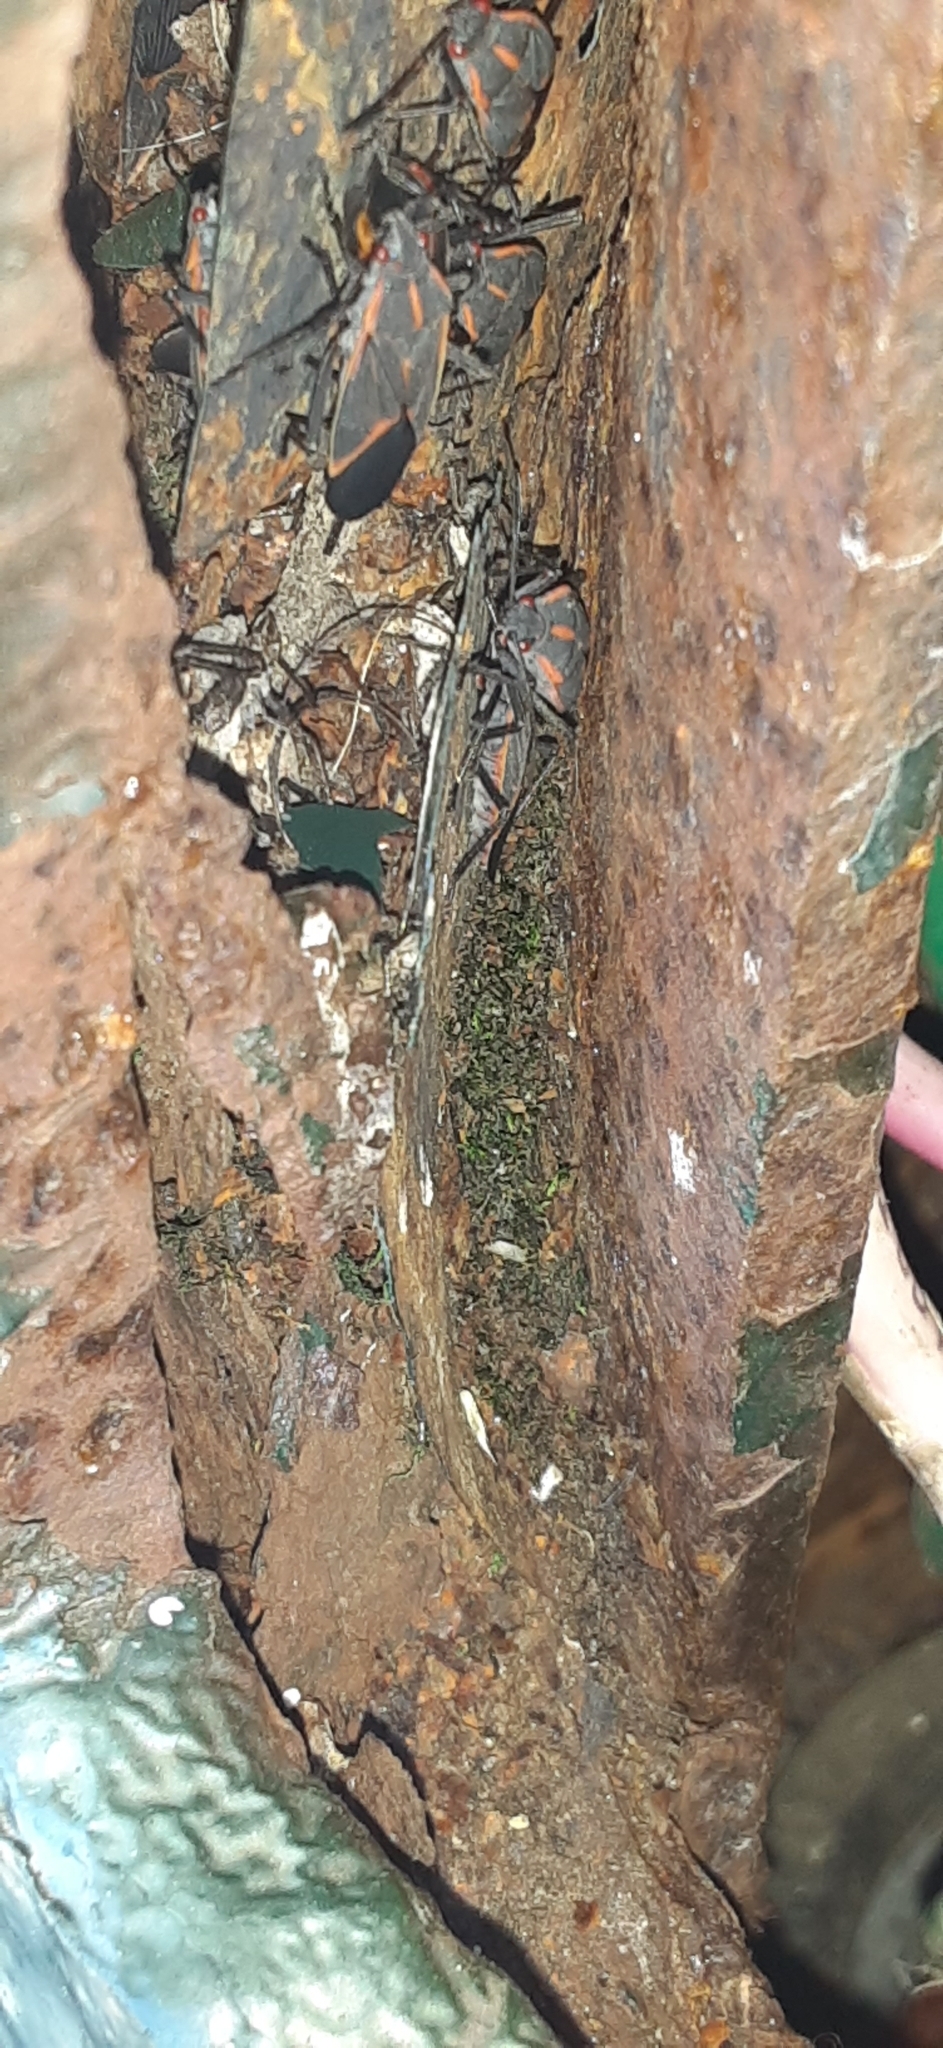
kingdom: Animalia
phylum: Arthropoda
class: Insecta
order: Hemiptera
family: Rhopalidae
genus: Boisea
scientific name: Boisea trivittata
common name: Boxelder bug
